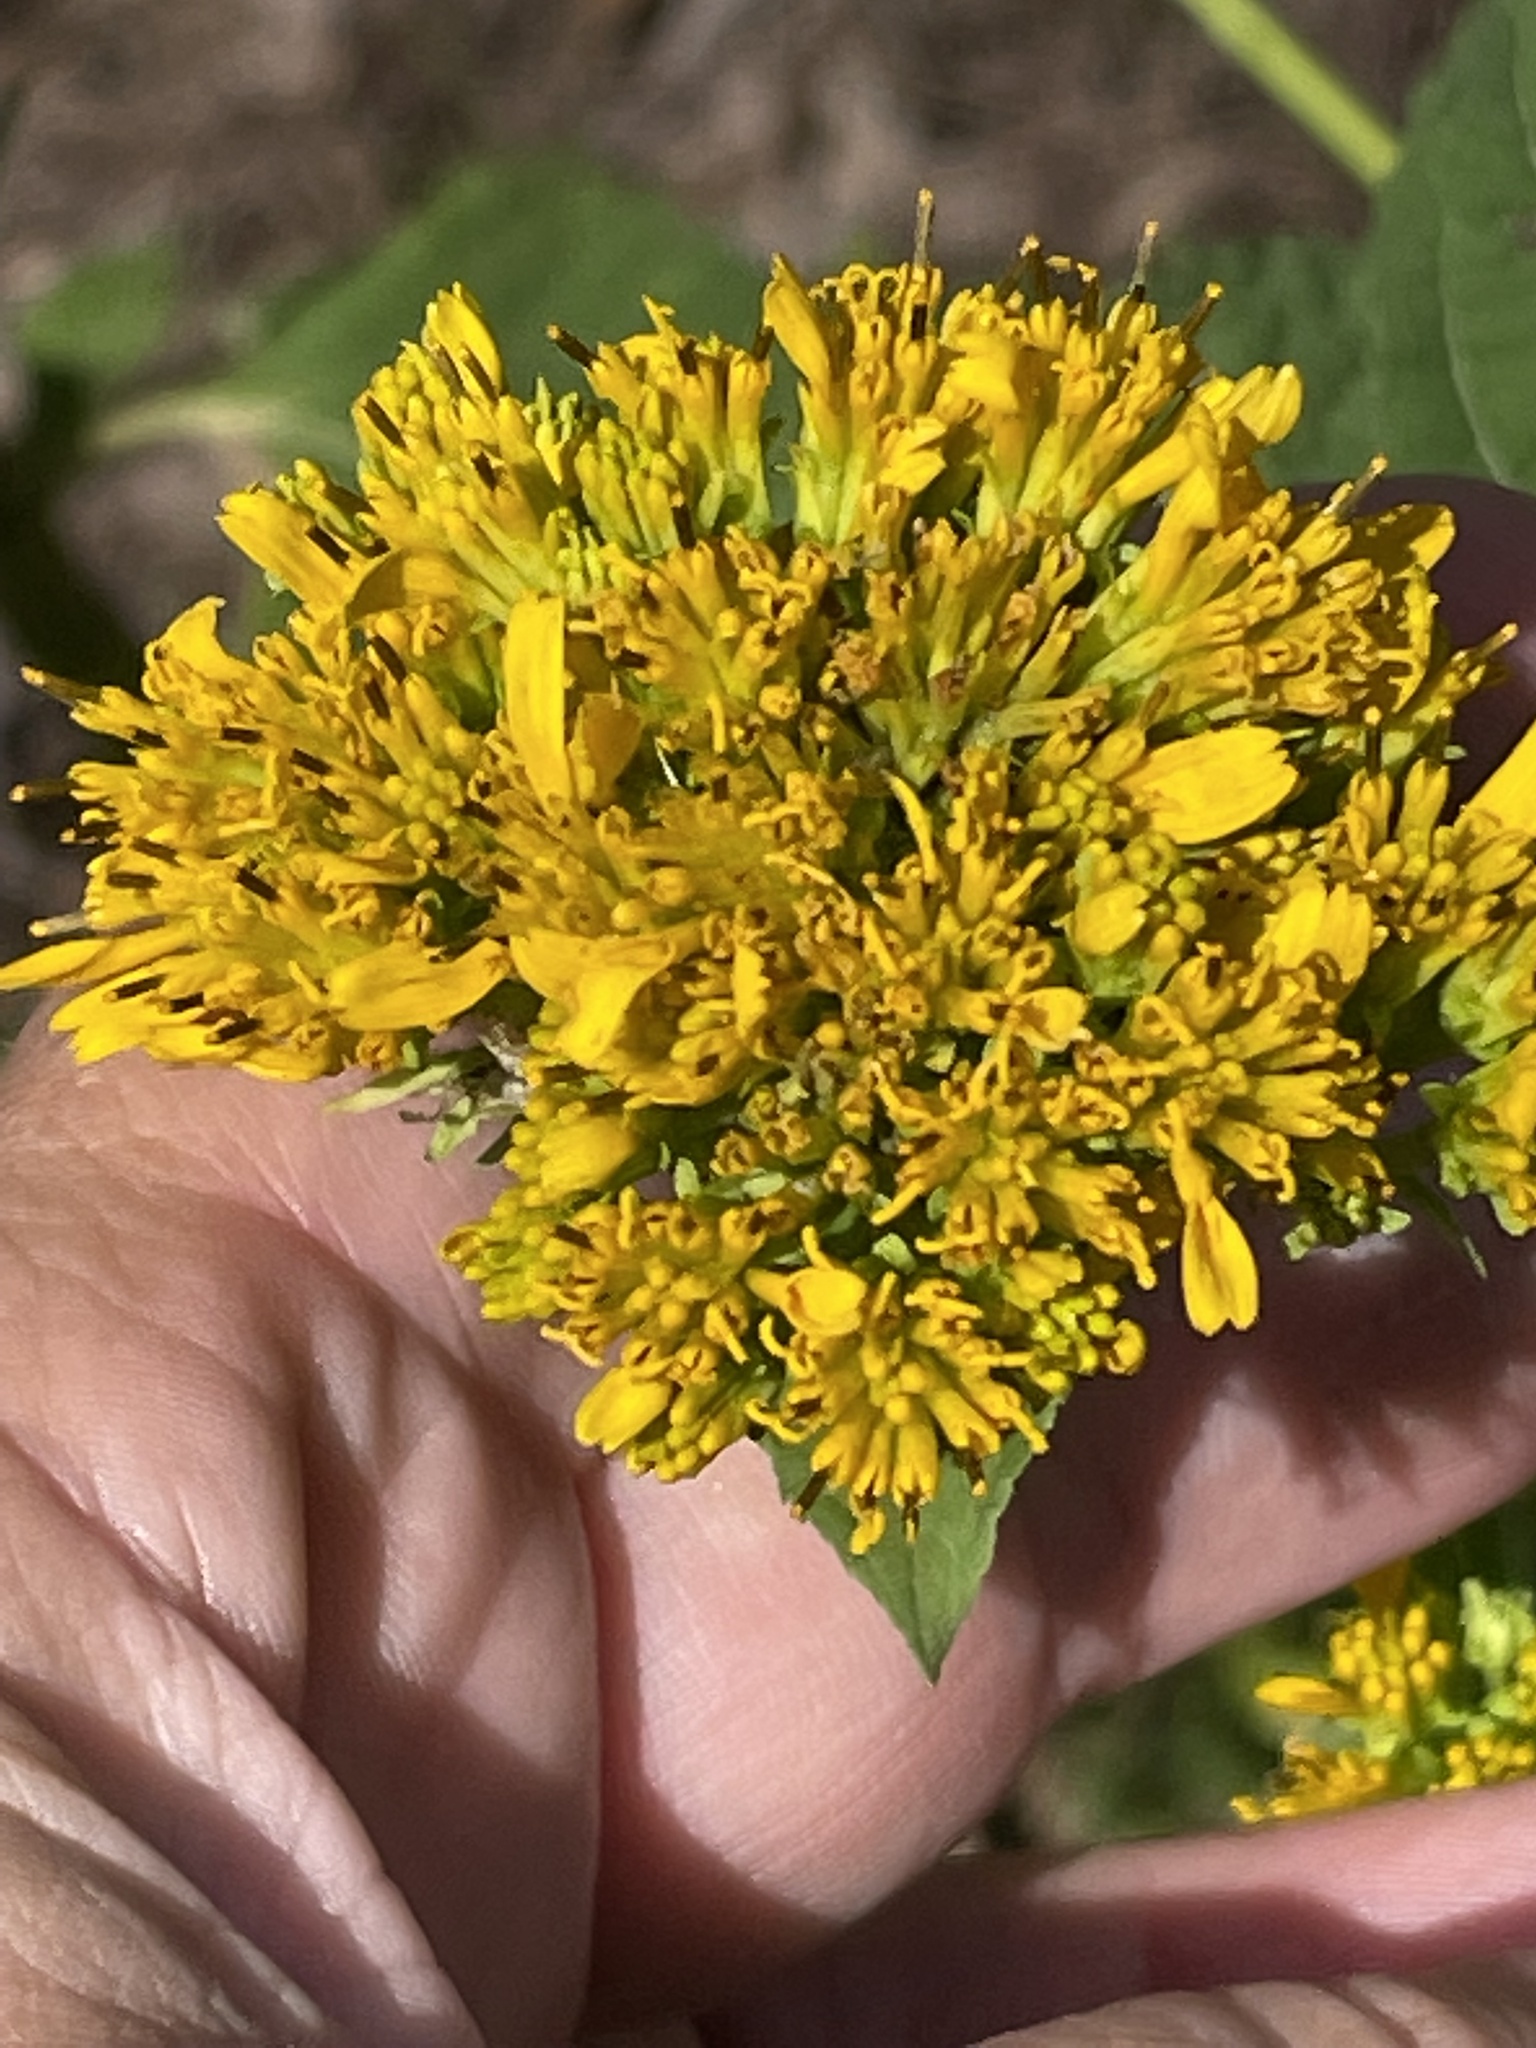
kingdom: Plantae
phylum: Tracheophyta
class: Magnoliopsida
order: Asterales
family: Asteraceae
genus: Verbesina
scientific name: Verbesina occidentalis
